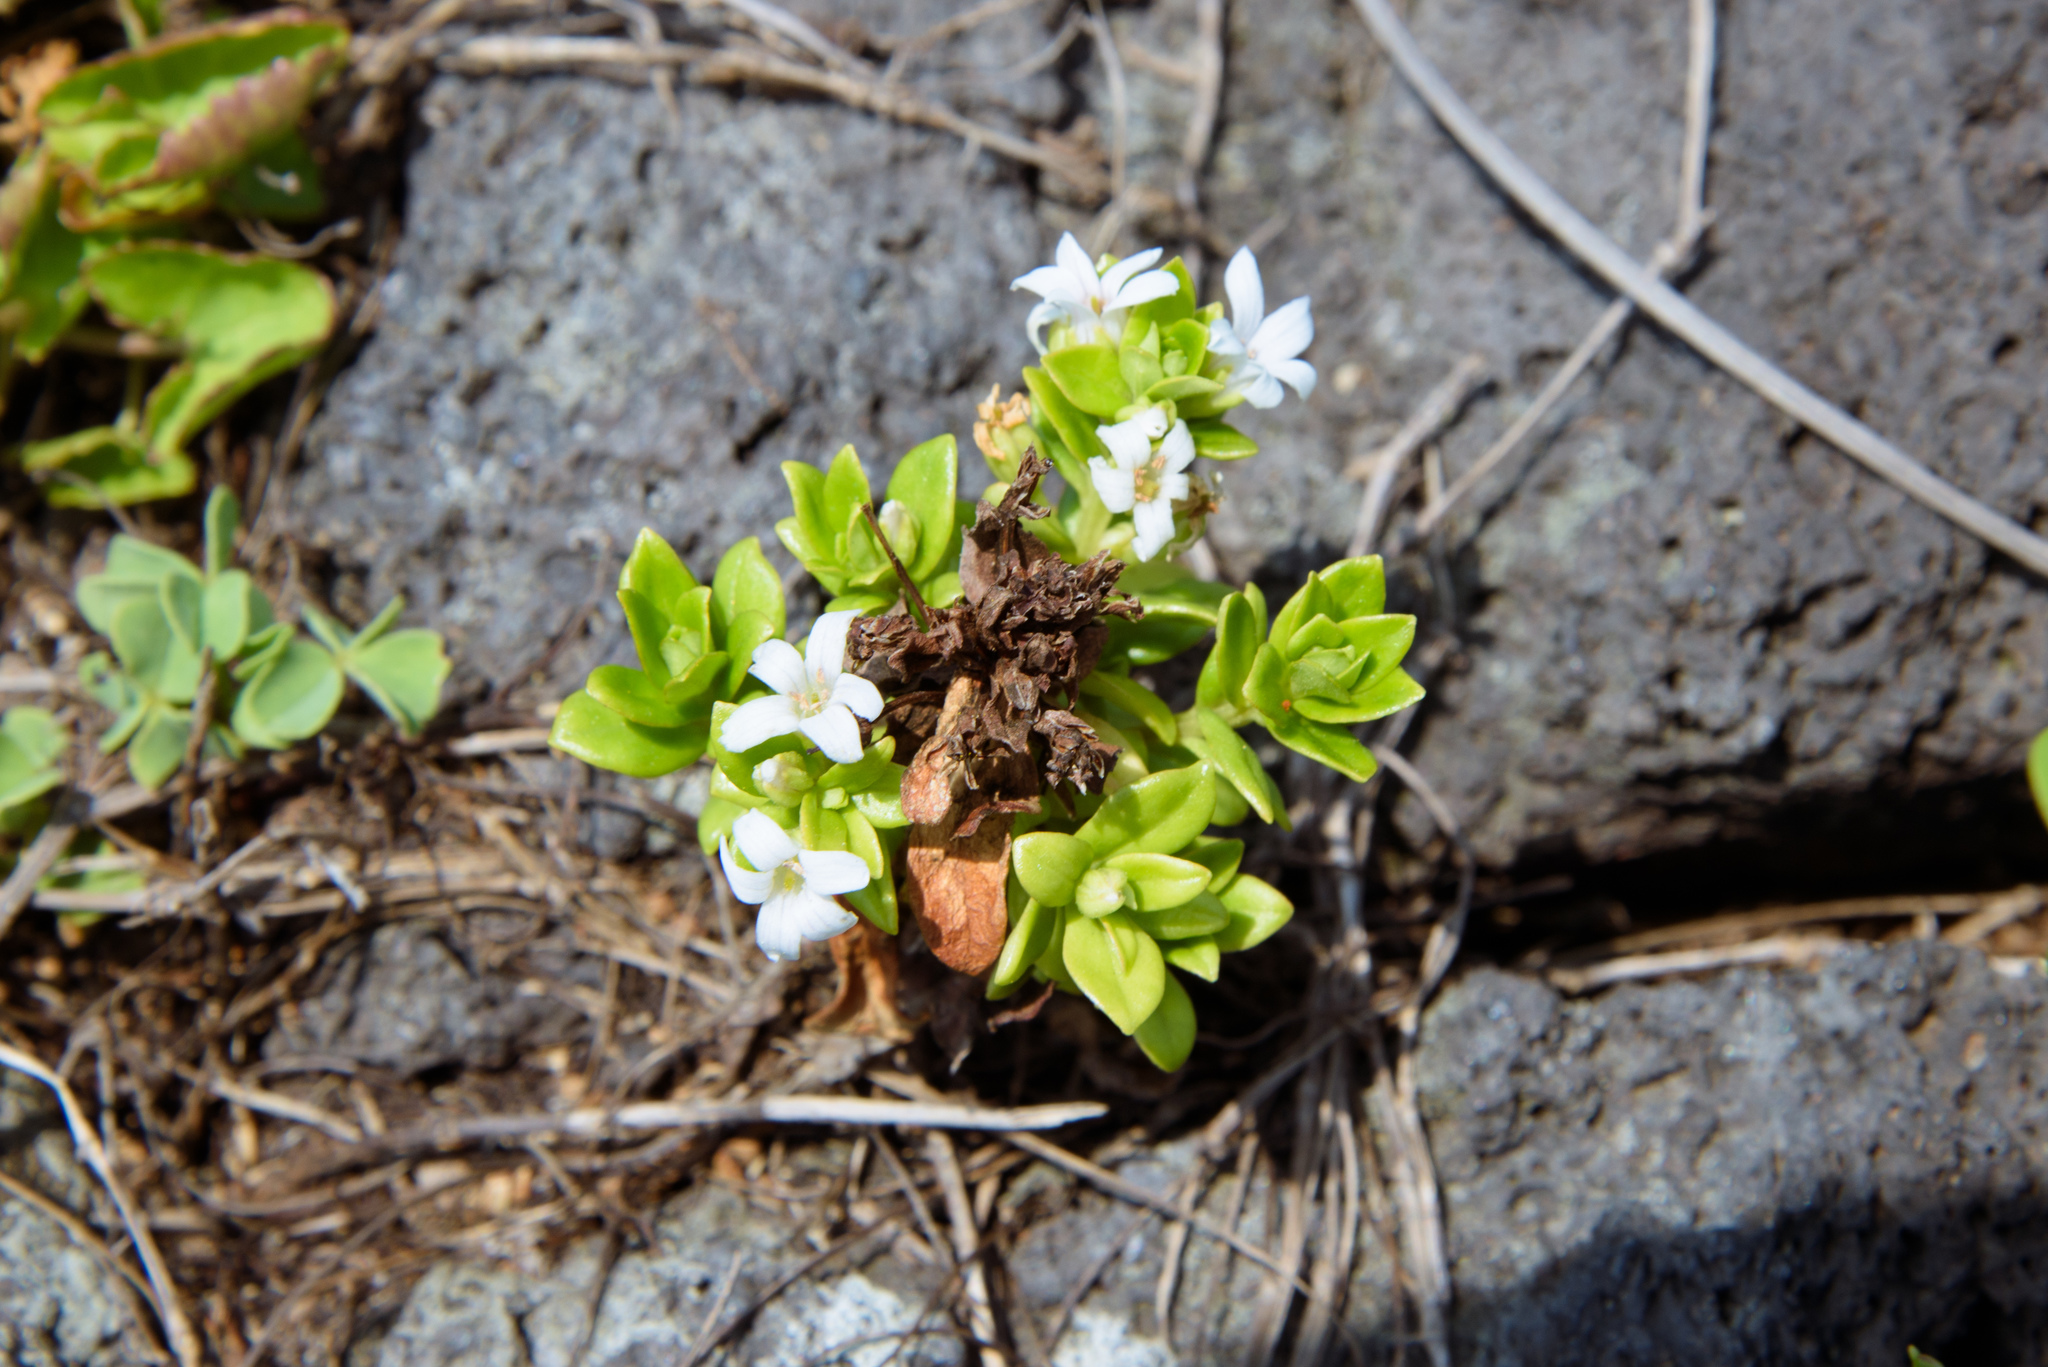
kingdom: Plantae
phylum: Tracheophyta
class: Magnoliopsida
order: Ericales
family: Primulaceae
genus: Lysimachia
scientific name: Lysimachia mauritiana
